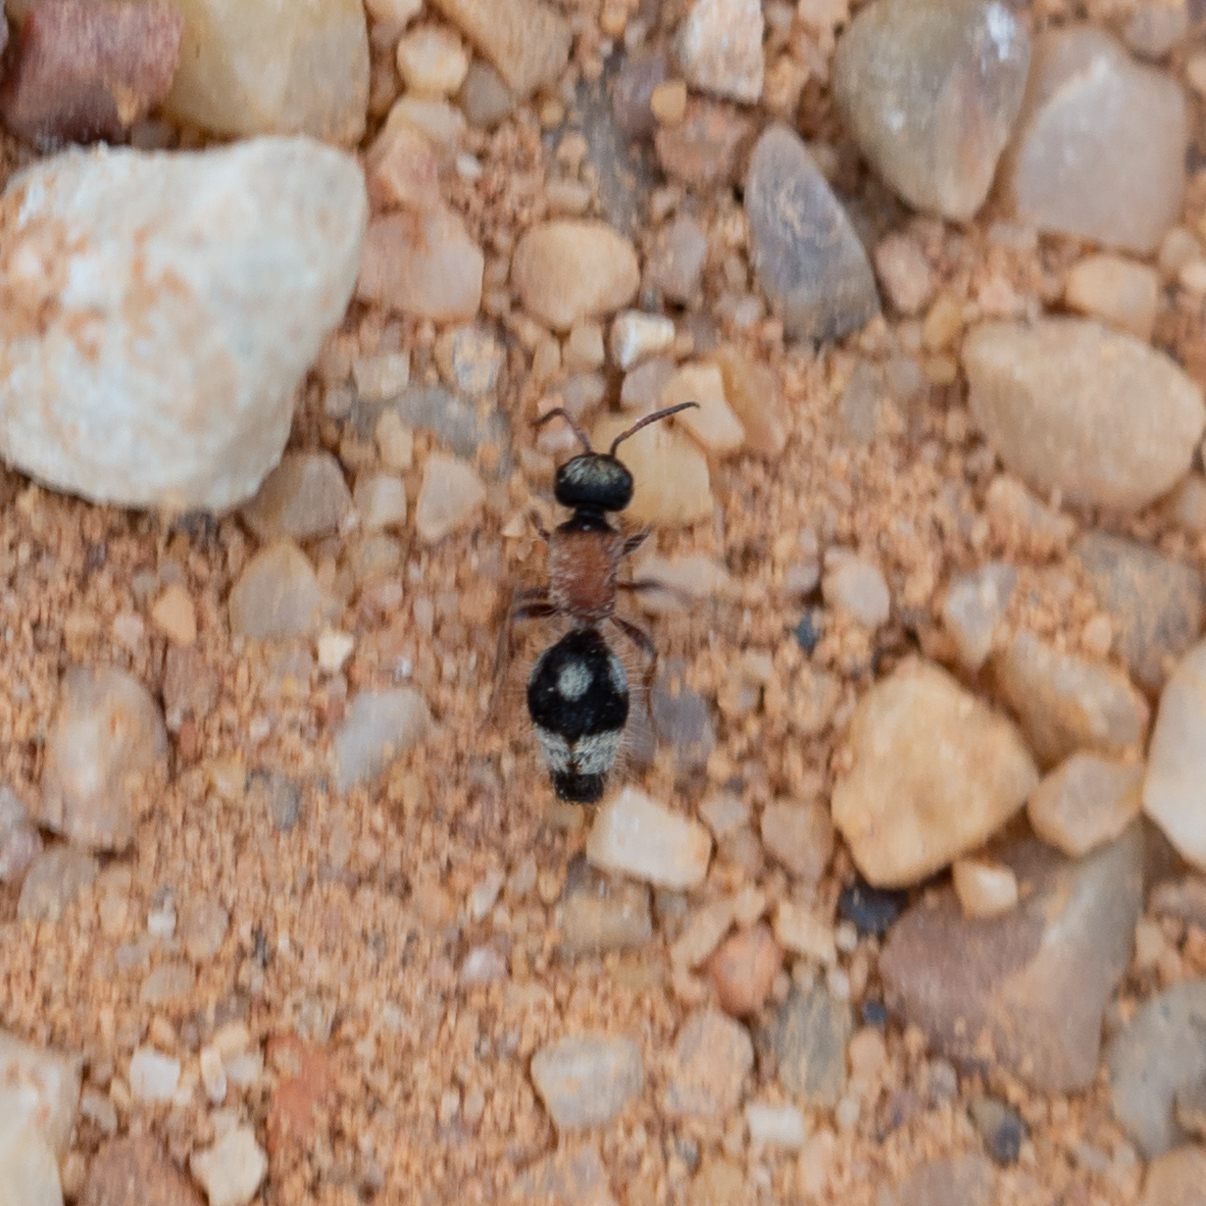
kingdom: Animalia
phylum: Arthropoda
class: Insecta
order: Hymenoptera
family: Mutillidae
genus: Smicromyrme
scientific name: Smicromyrme partita
